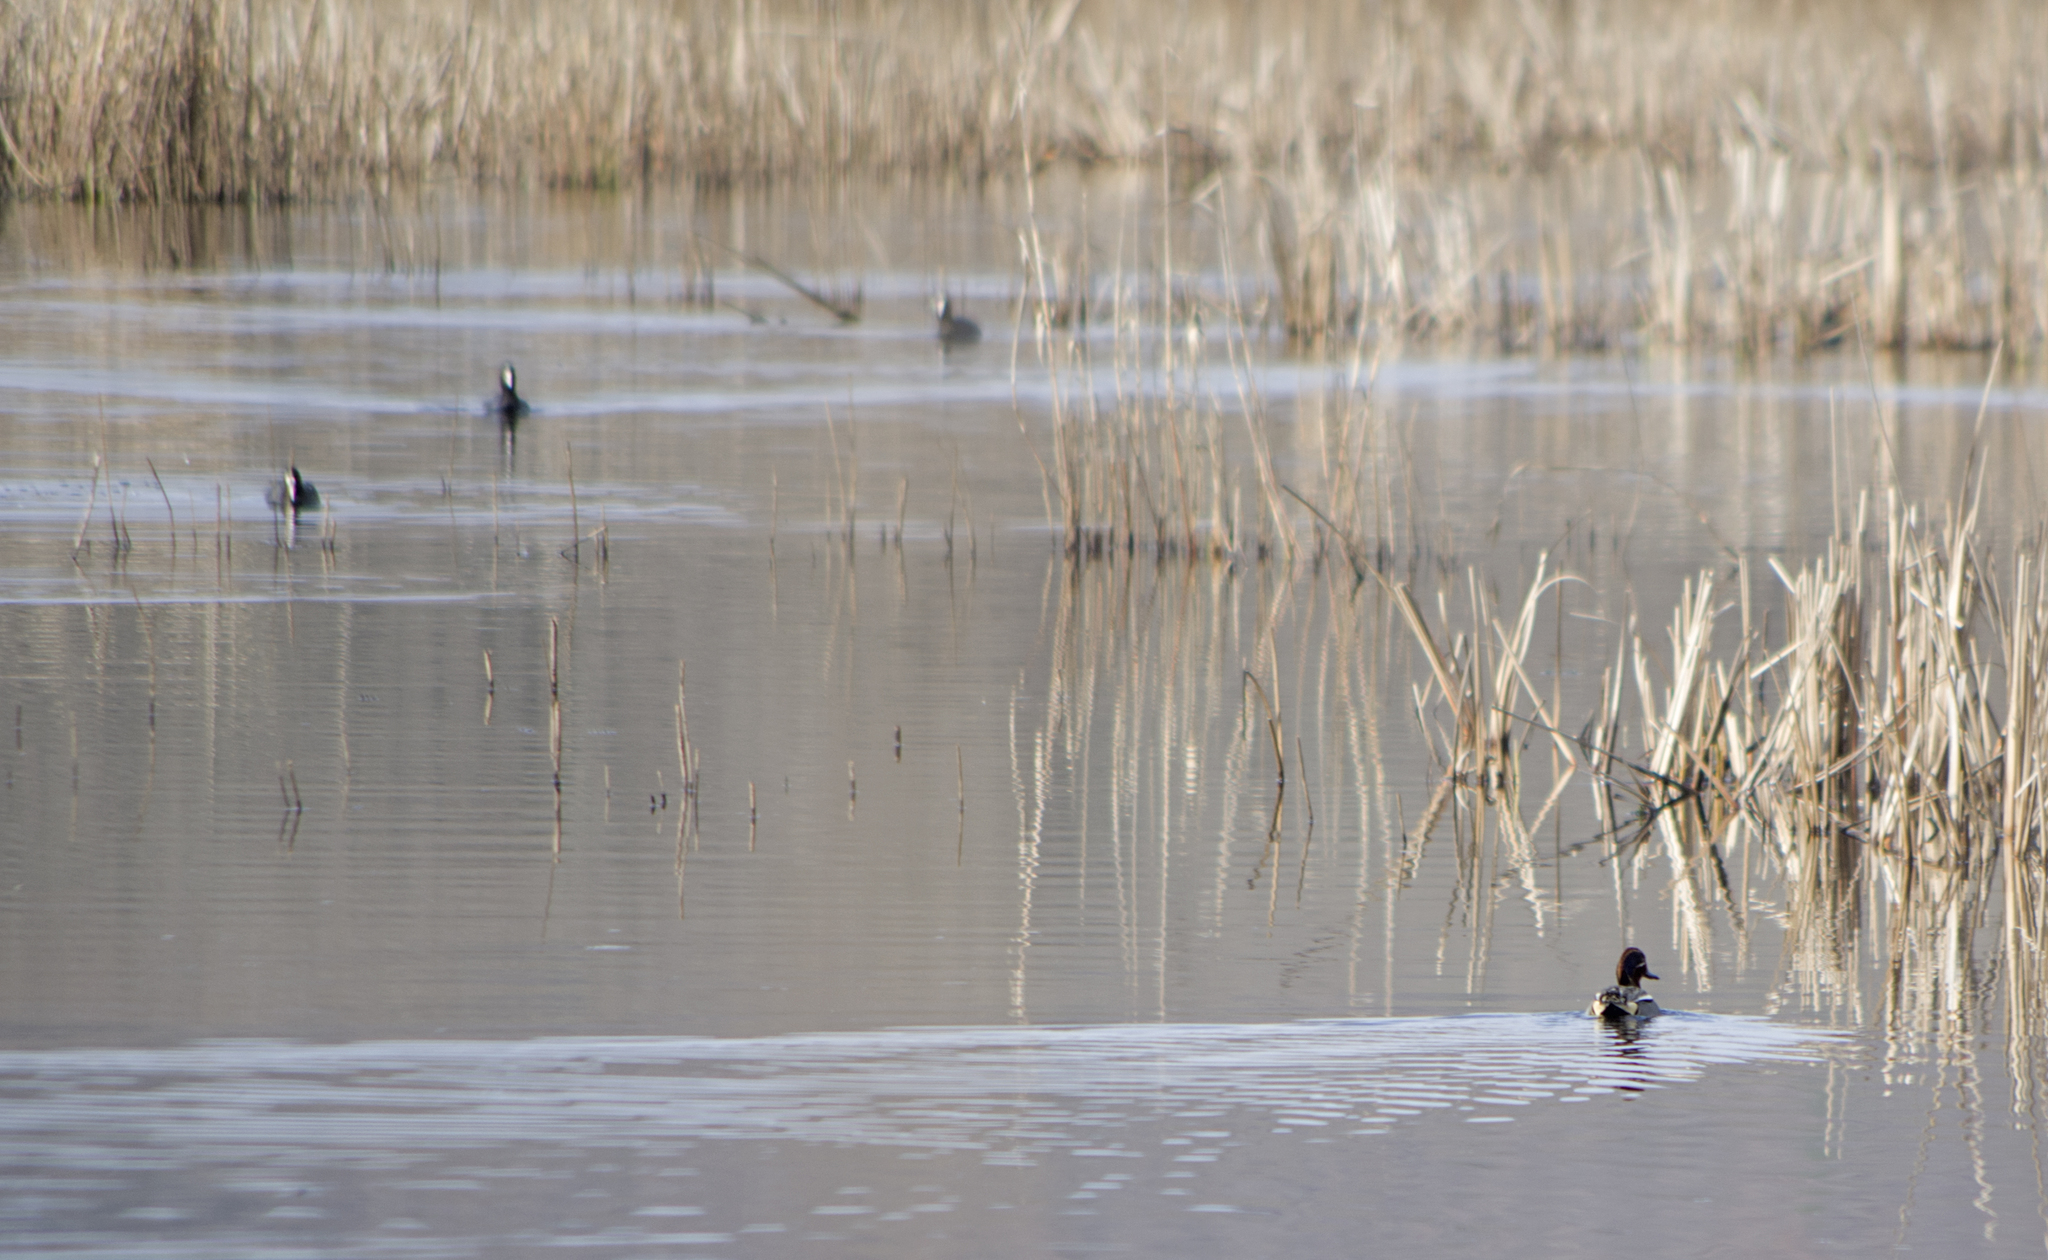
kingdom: Animalia
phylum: Chordata
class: Aves
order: Anseriformes
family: Anatidae
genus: Anas
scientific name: Anas crecca
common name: Eurasian teal
